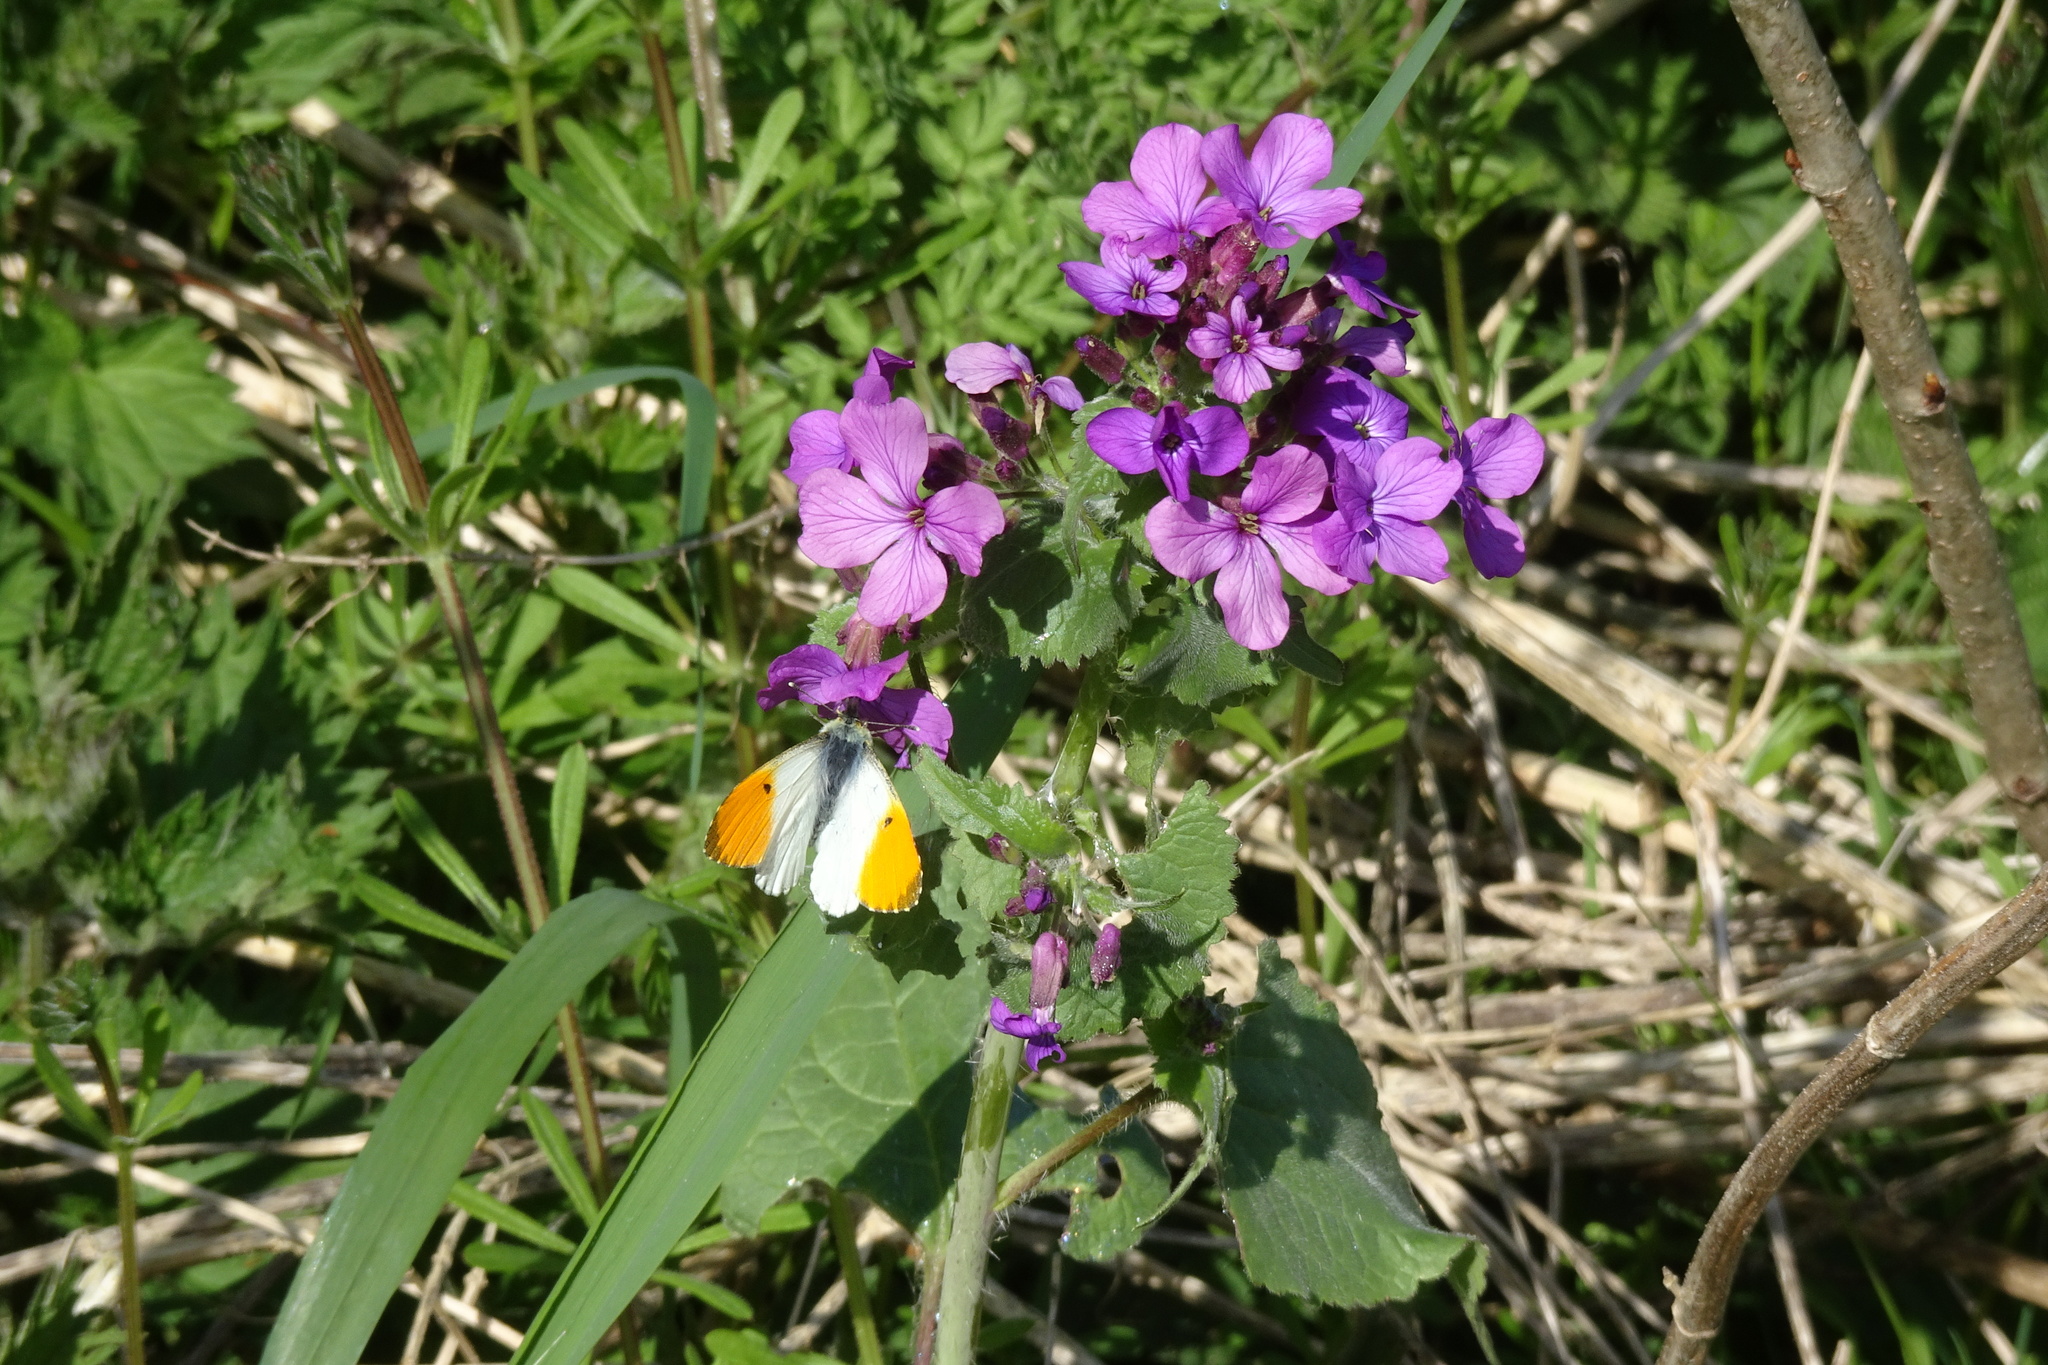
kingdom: Animalia
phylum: Arthropoda
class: Insecta
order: Lepidoptera
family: Pieridae
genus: Anthocharis
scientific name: Anthocharis cardamines
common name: Orange-tip
